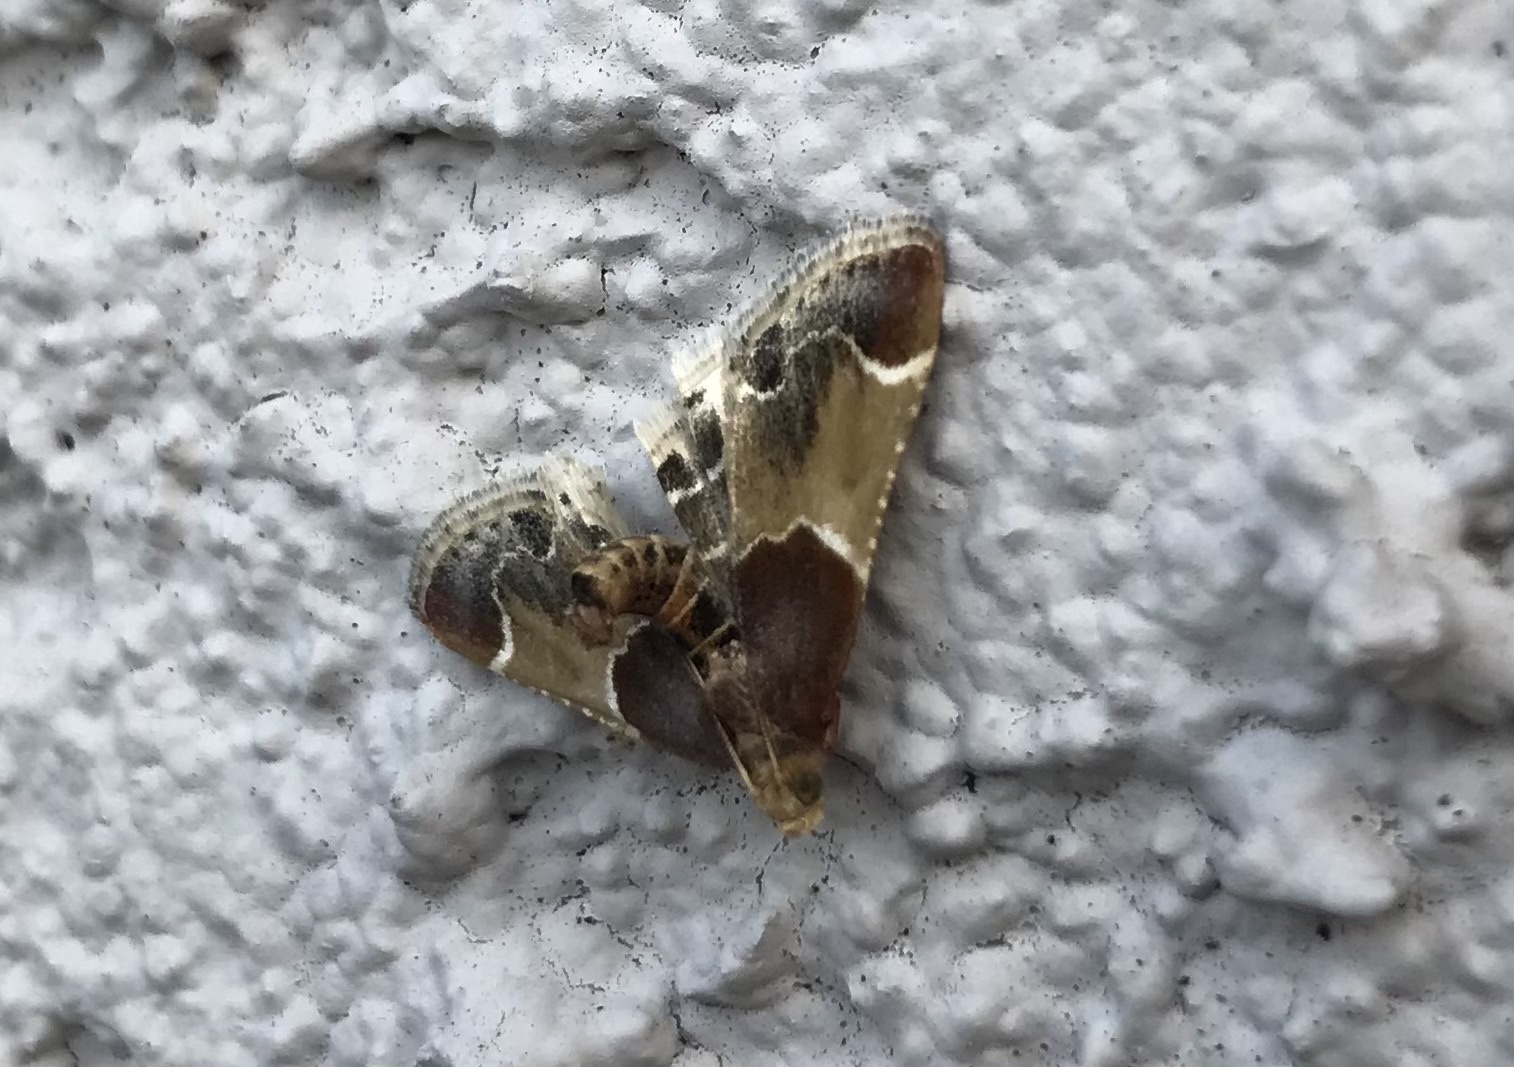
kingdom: Animalia
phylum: Arthropoda
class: Insecta
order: Lepidoptera
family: Pyralidae
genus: Pyralis
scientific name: Pyralis farinalis
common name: Meal moth
